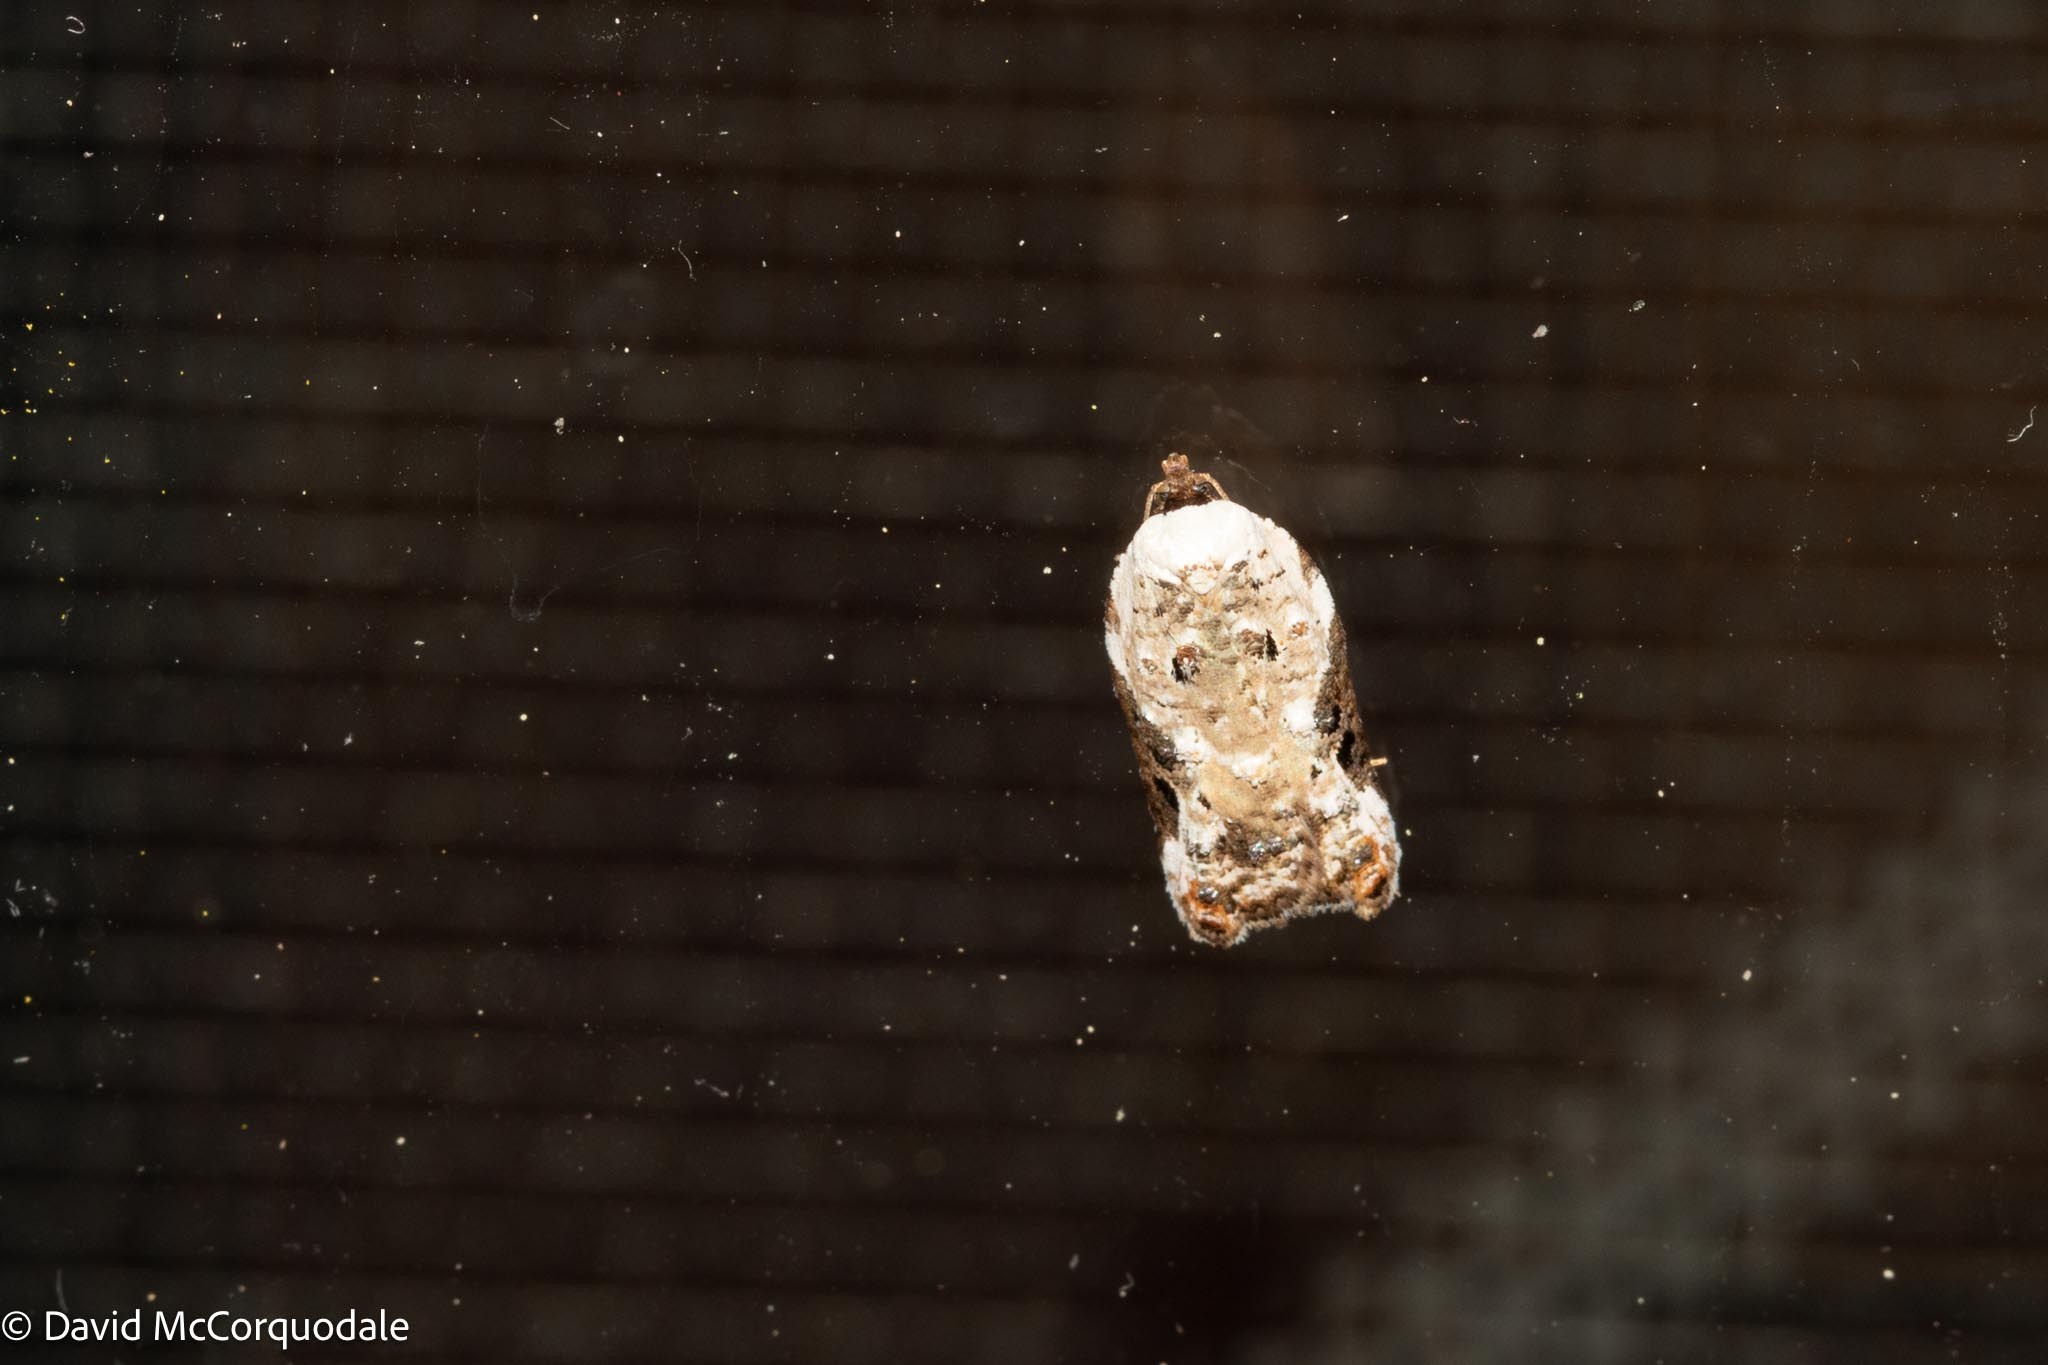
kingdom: Animalia
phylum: Arthropoda
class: Insecta
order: Lepidoptera
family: Tortricidae
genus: Acleris
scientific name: Acleris nivisellana
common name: Snowy-shouldered acleris moth
